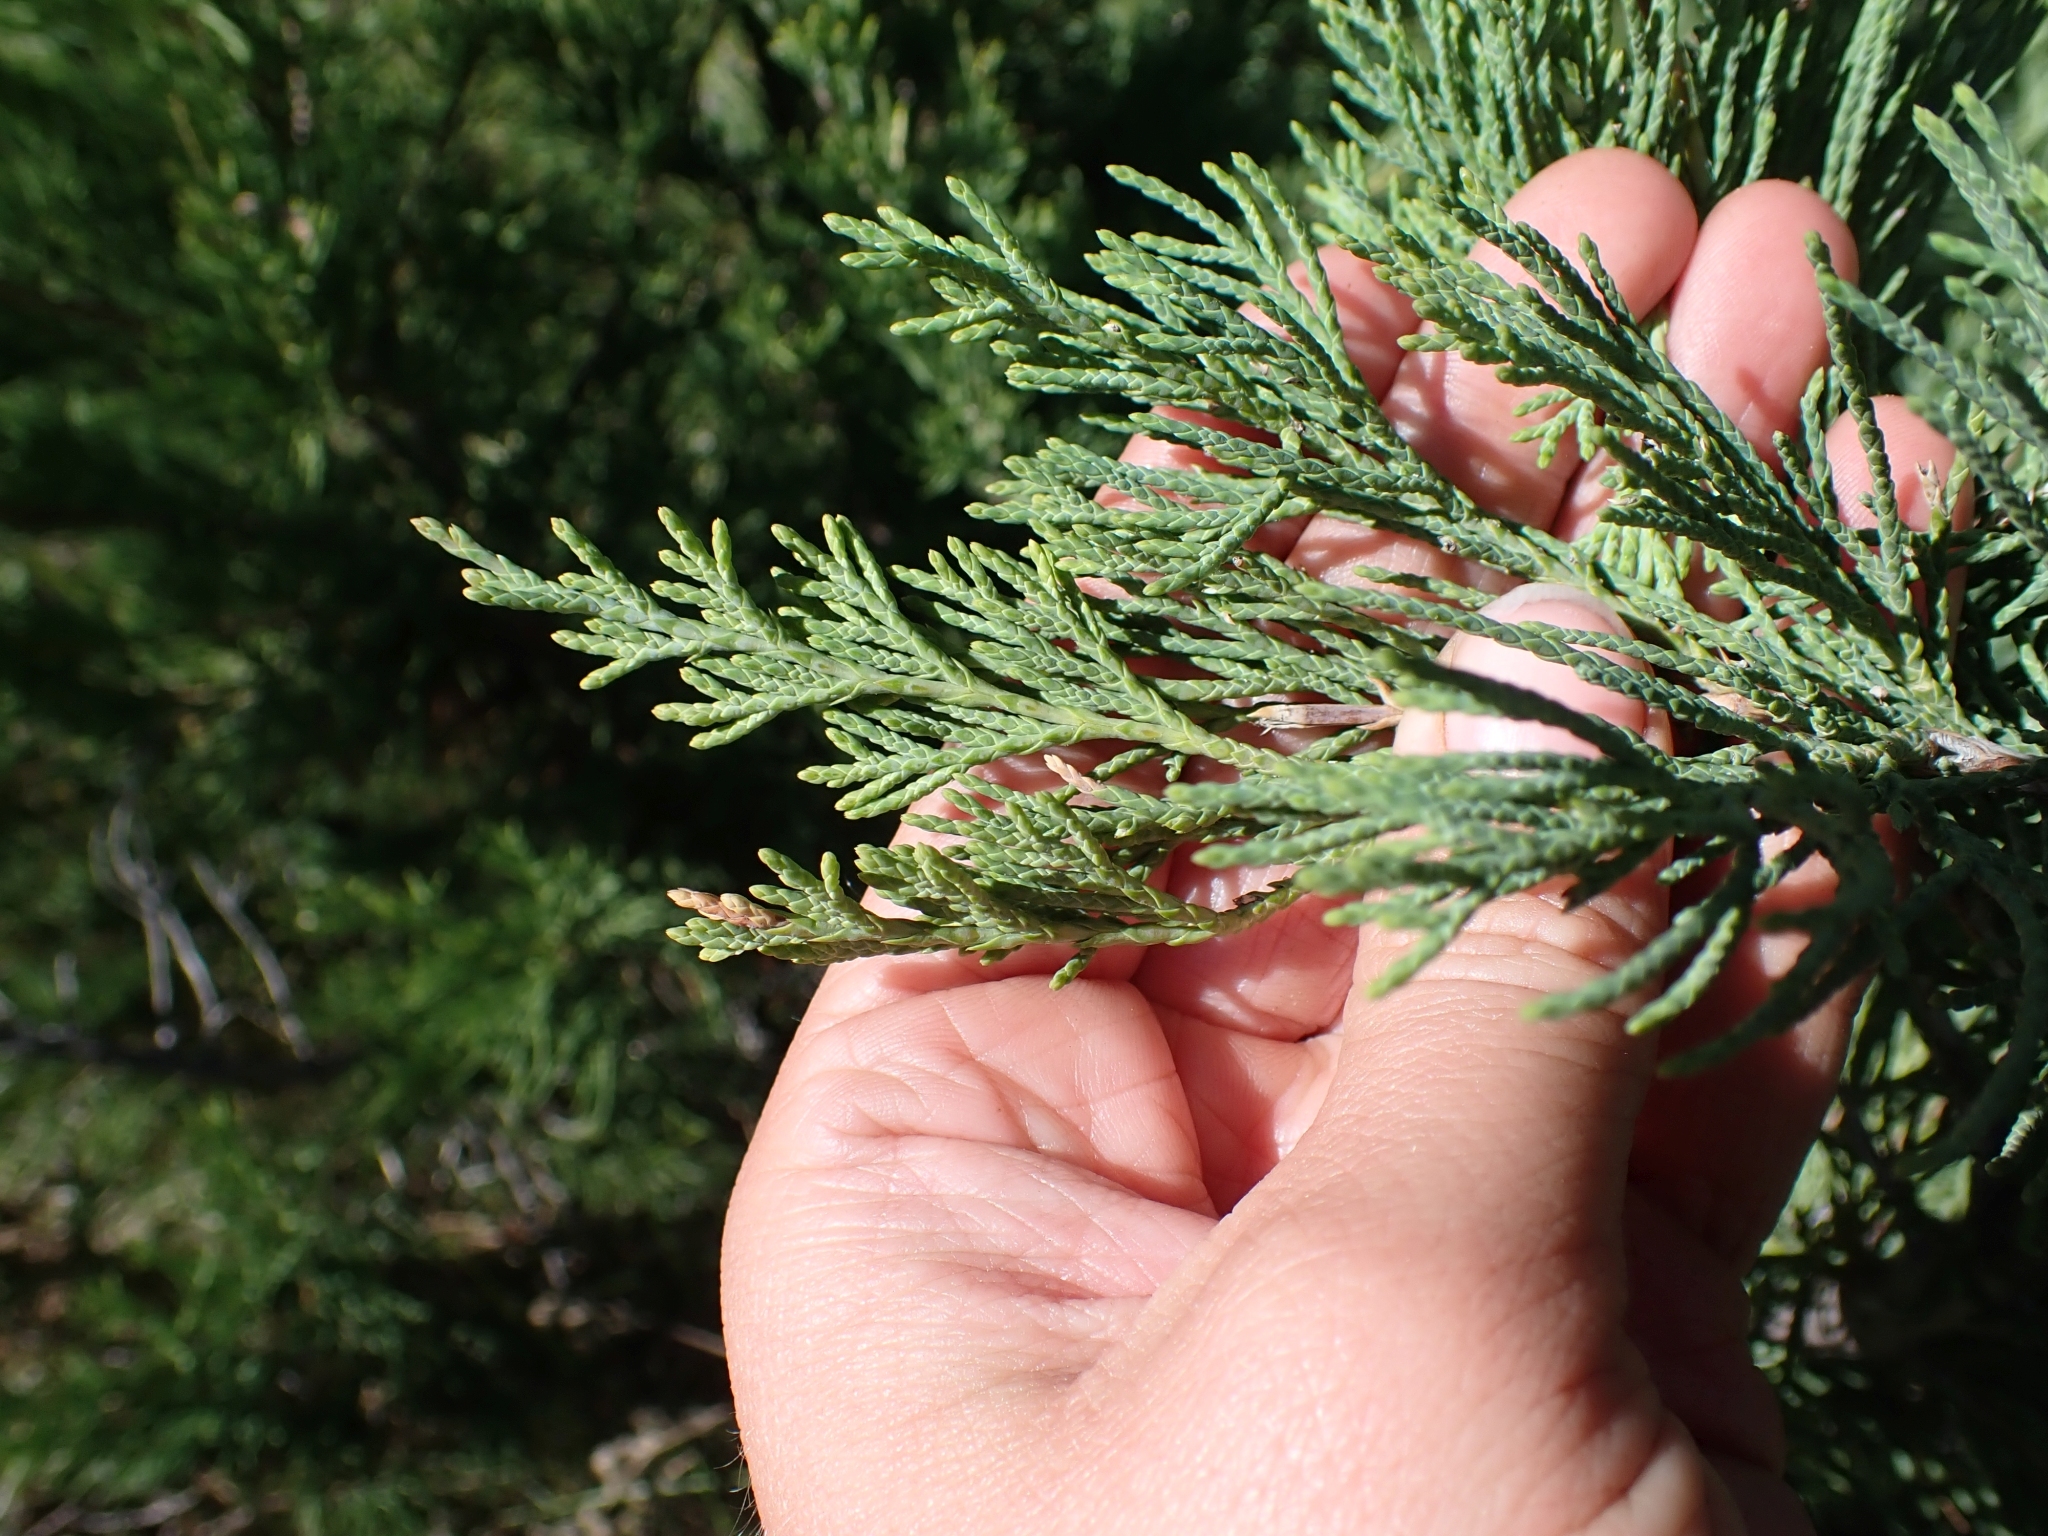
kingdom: Plantae
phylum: Tracheophyta
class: Pinopsida
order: Pinales
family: Cupressaceae
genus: Juniperus
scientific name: Juniperus scopulorum
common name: Rocky mountain juniper
